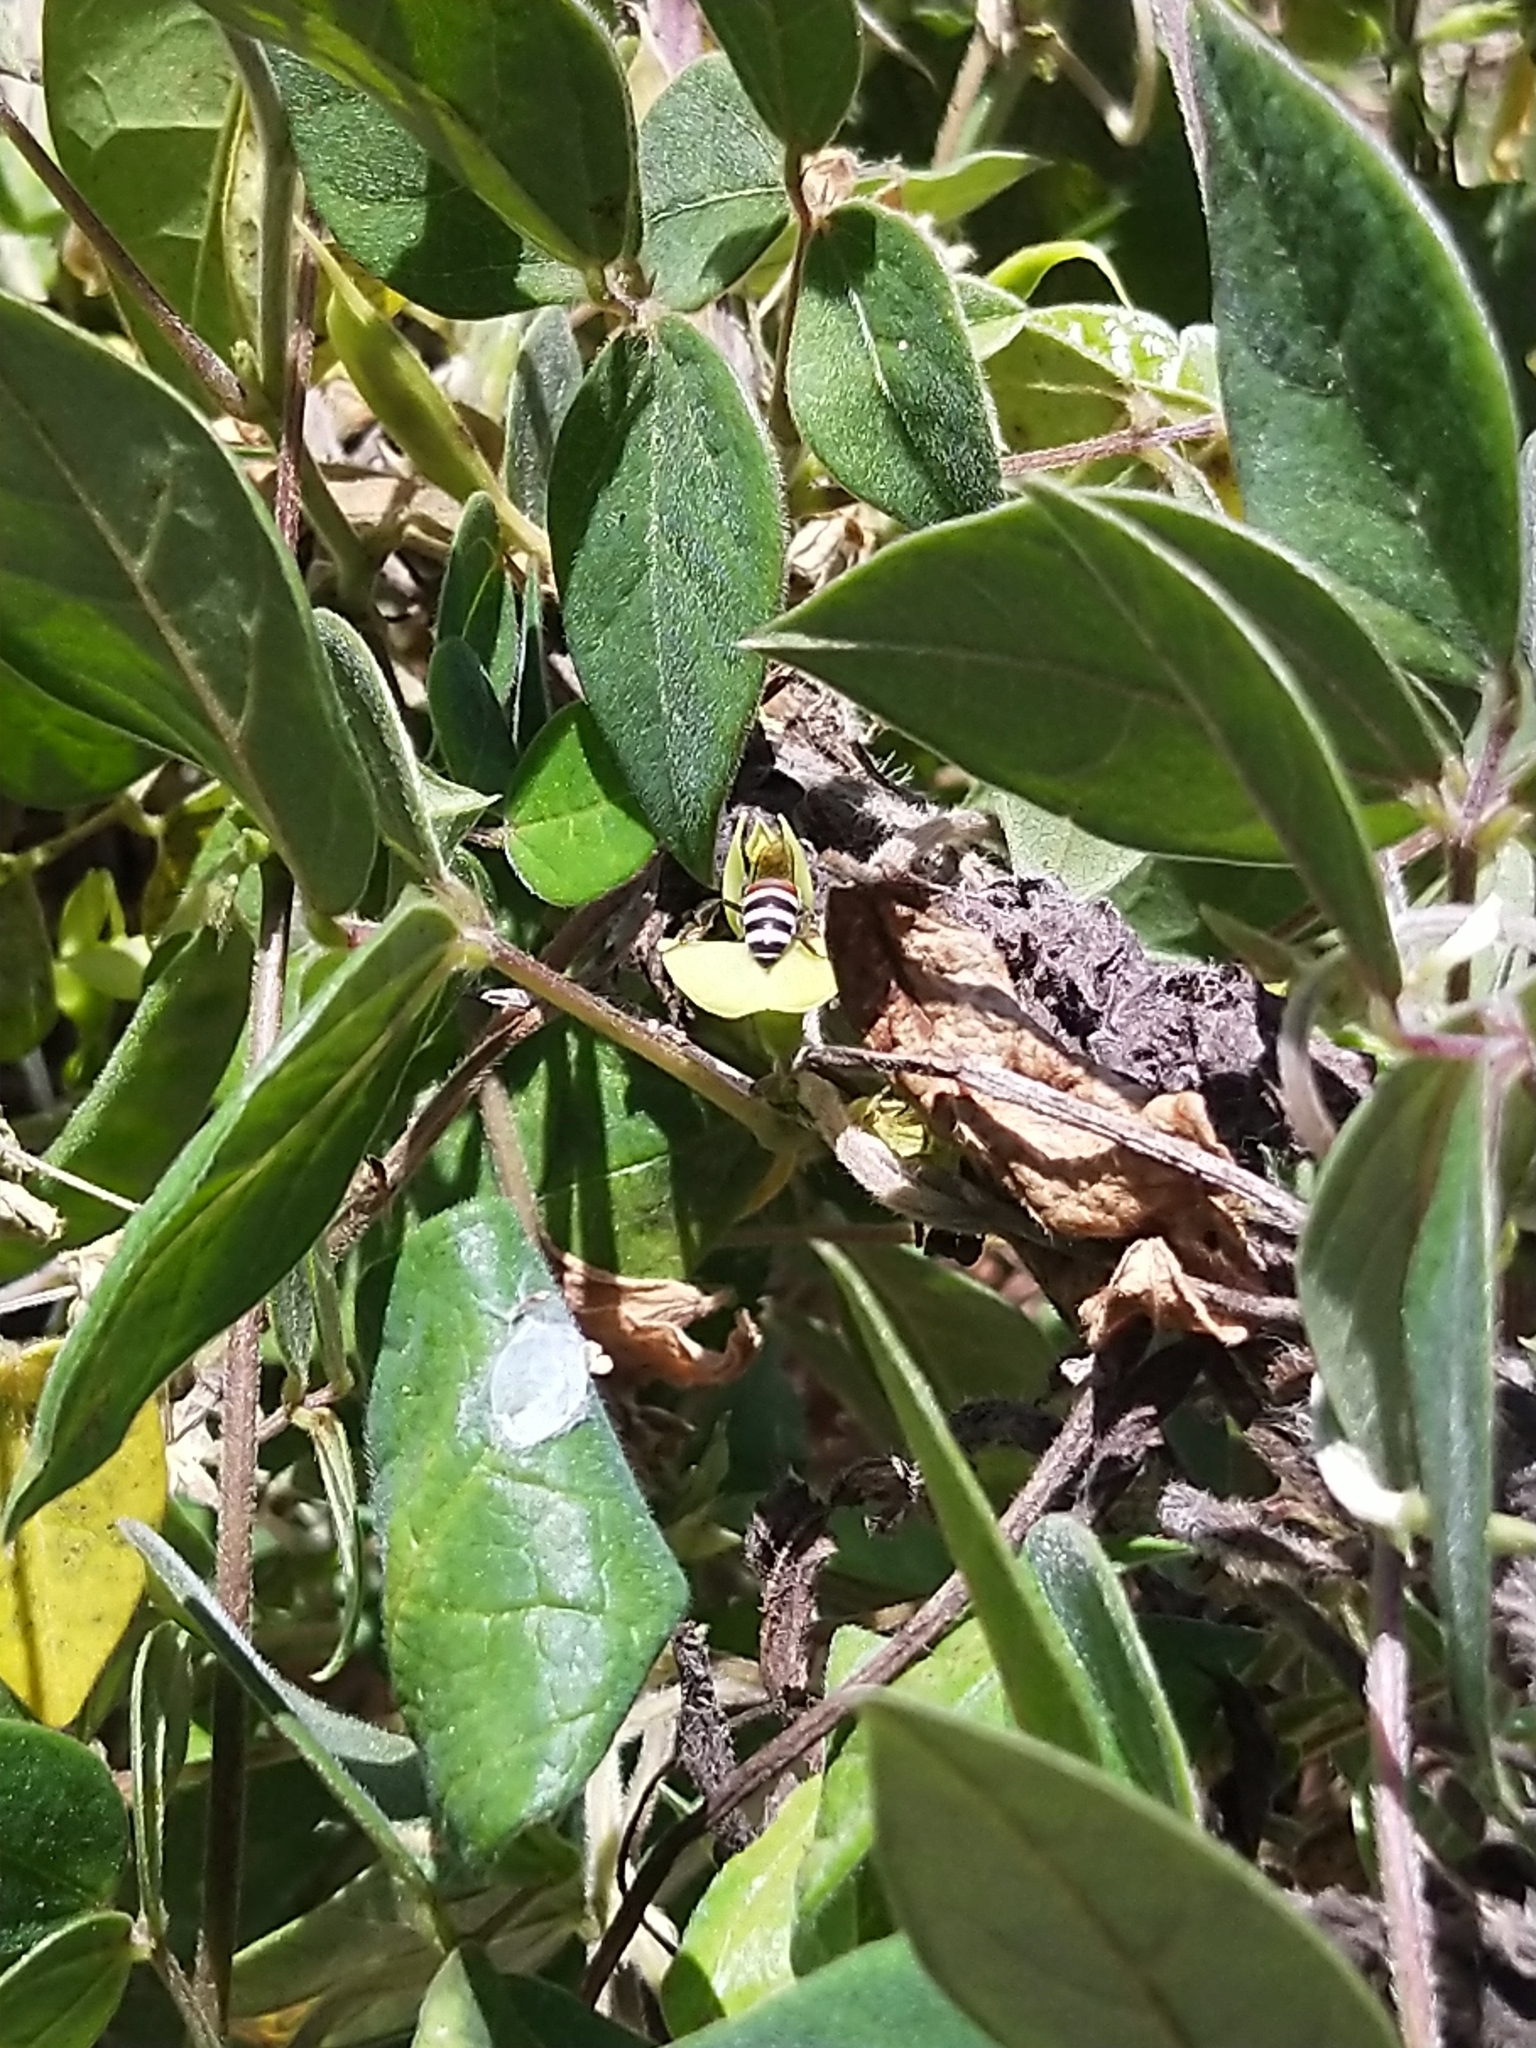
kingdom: Animalia
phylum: Arthropoda
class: Insecta
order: Hymenoptera
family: Apidae
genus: Apis
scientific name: Apis florea
